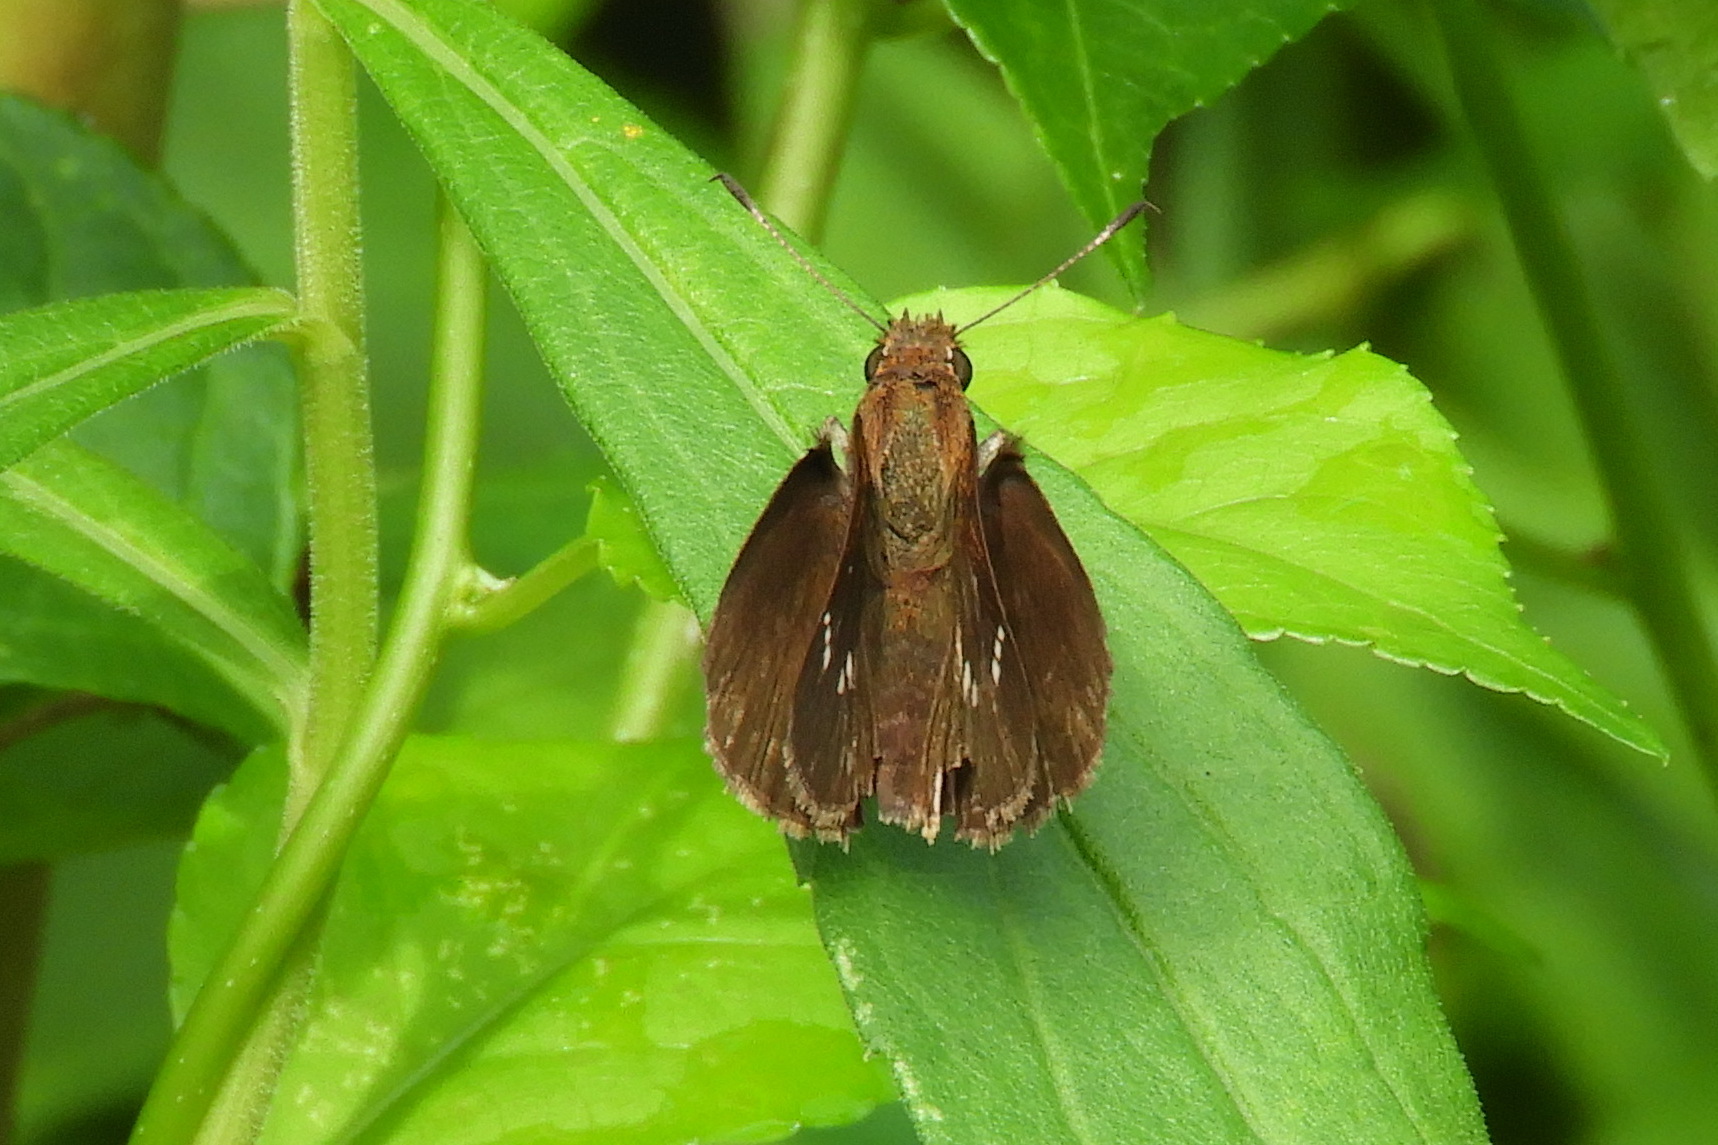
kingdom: Animalia
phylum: Arthropoda
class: Insecta
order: Lepidoptera
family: Hesperiidae
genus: Lerema
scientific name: Lerema accius
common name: Clouded skipper
